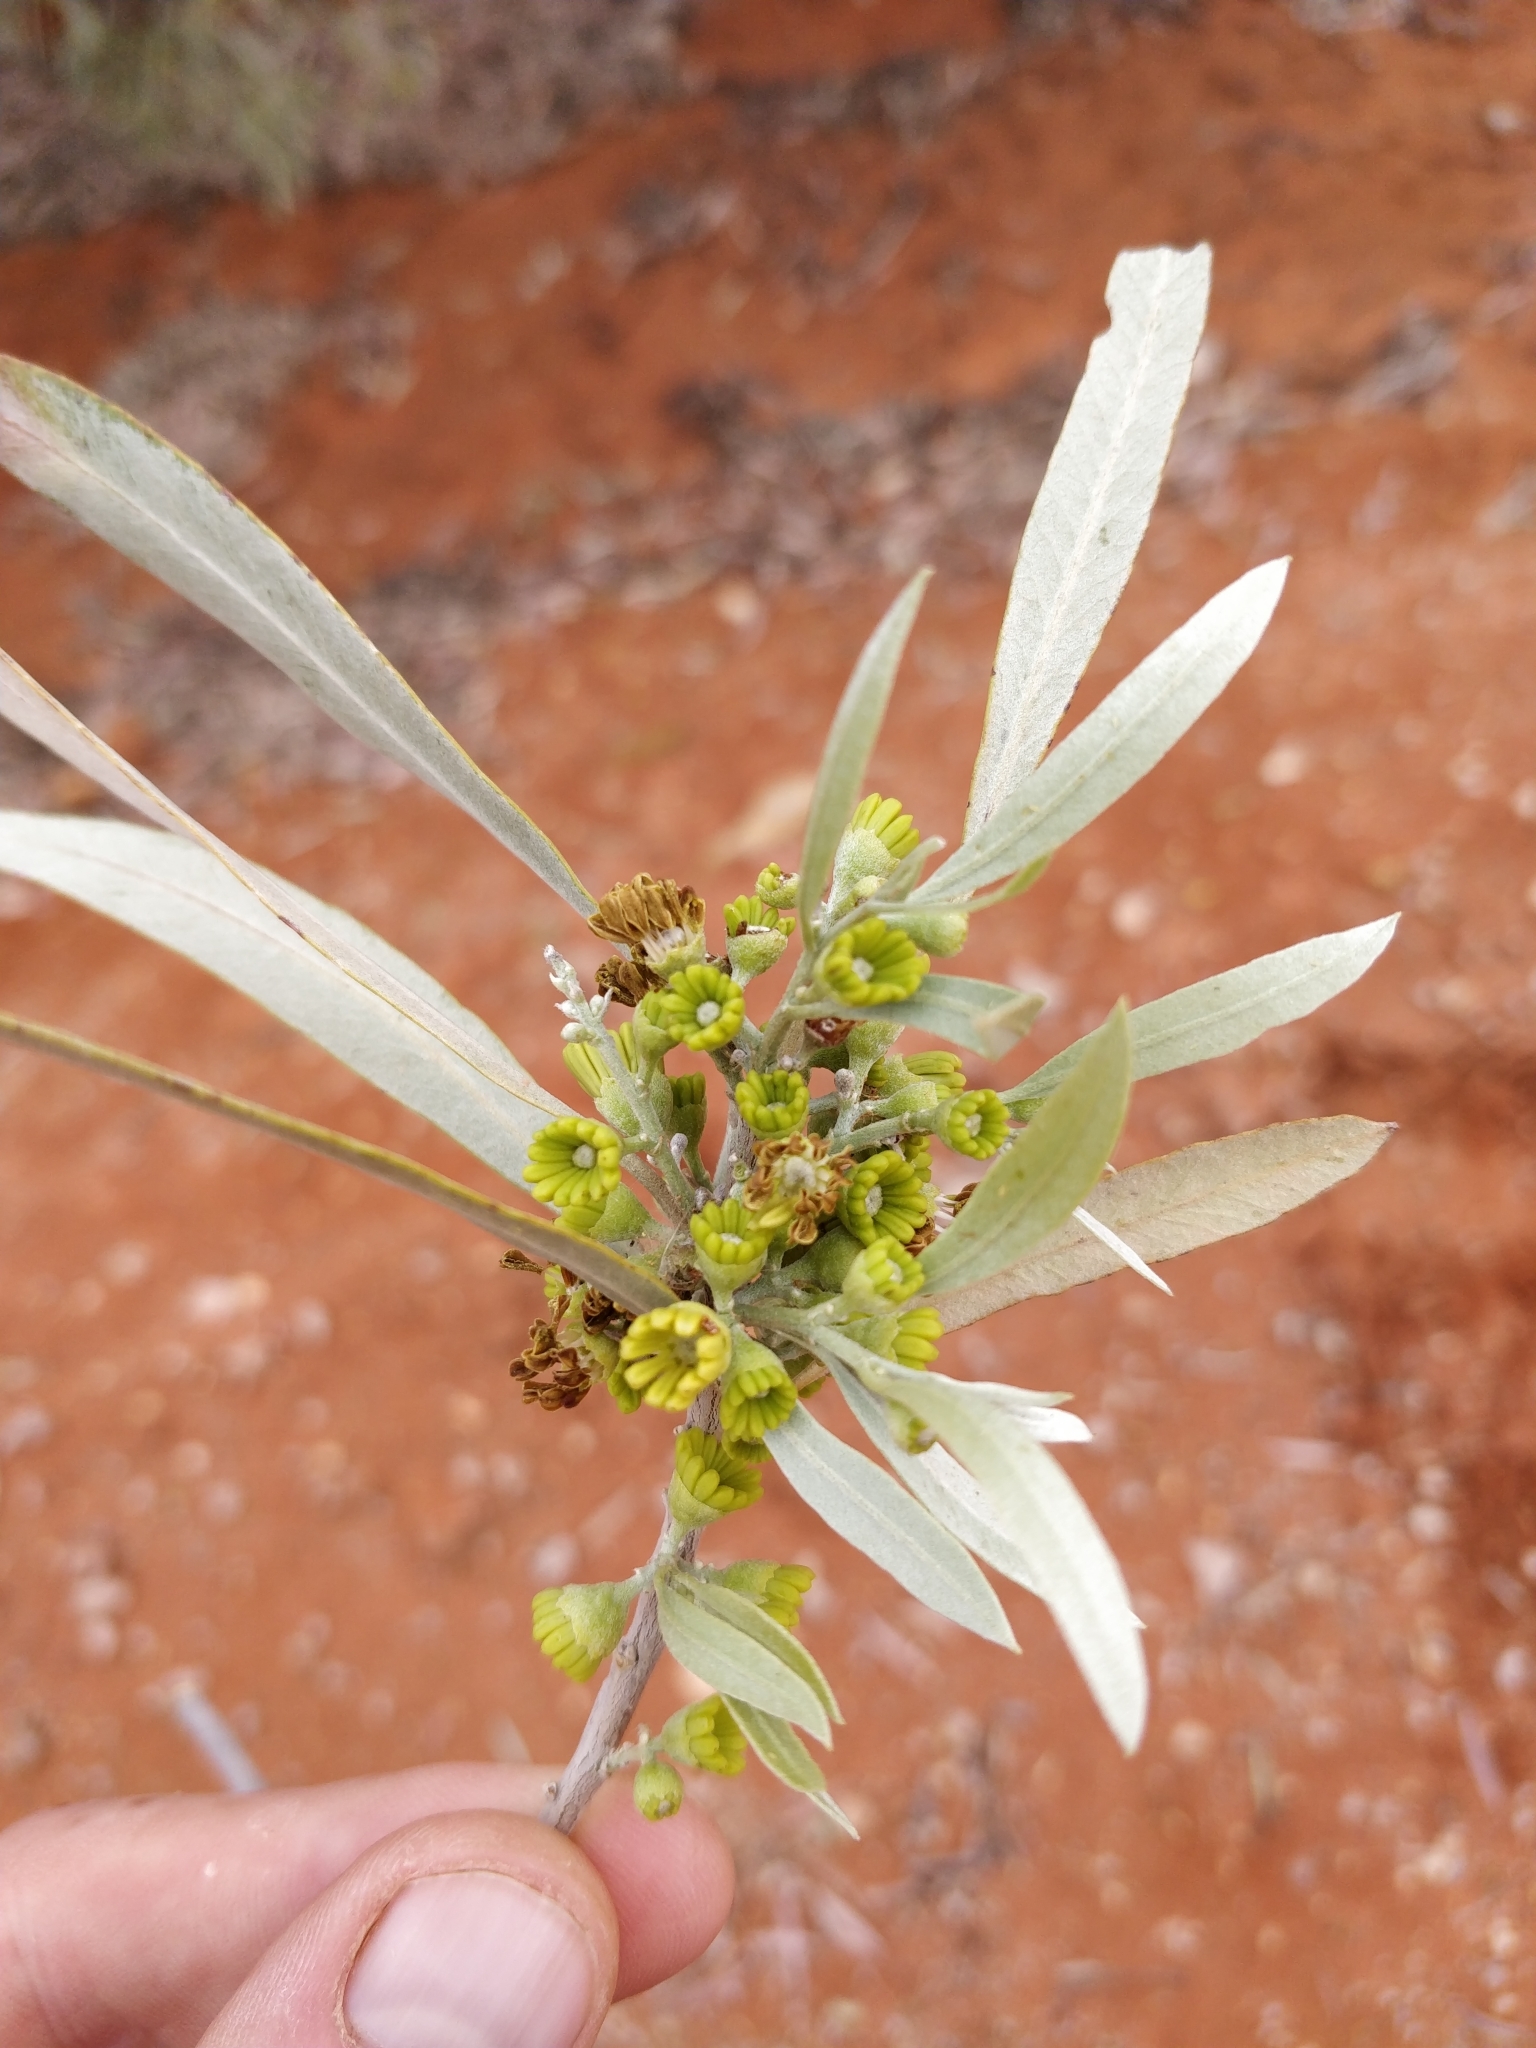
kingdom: Plantae
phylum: Tracheophyta
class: Magnoliopsida
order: Sapindales
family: Sapindaceae
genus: Alectryon
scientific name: Alectryon oleifolius
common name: Australian rosewood
